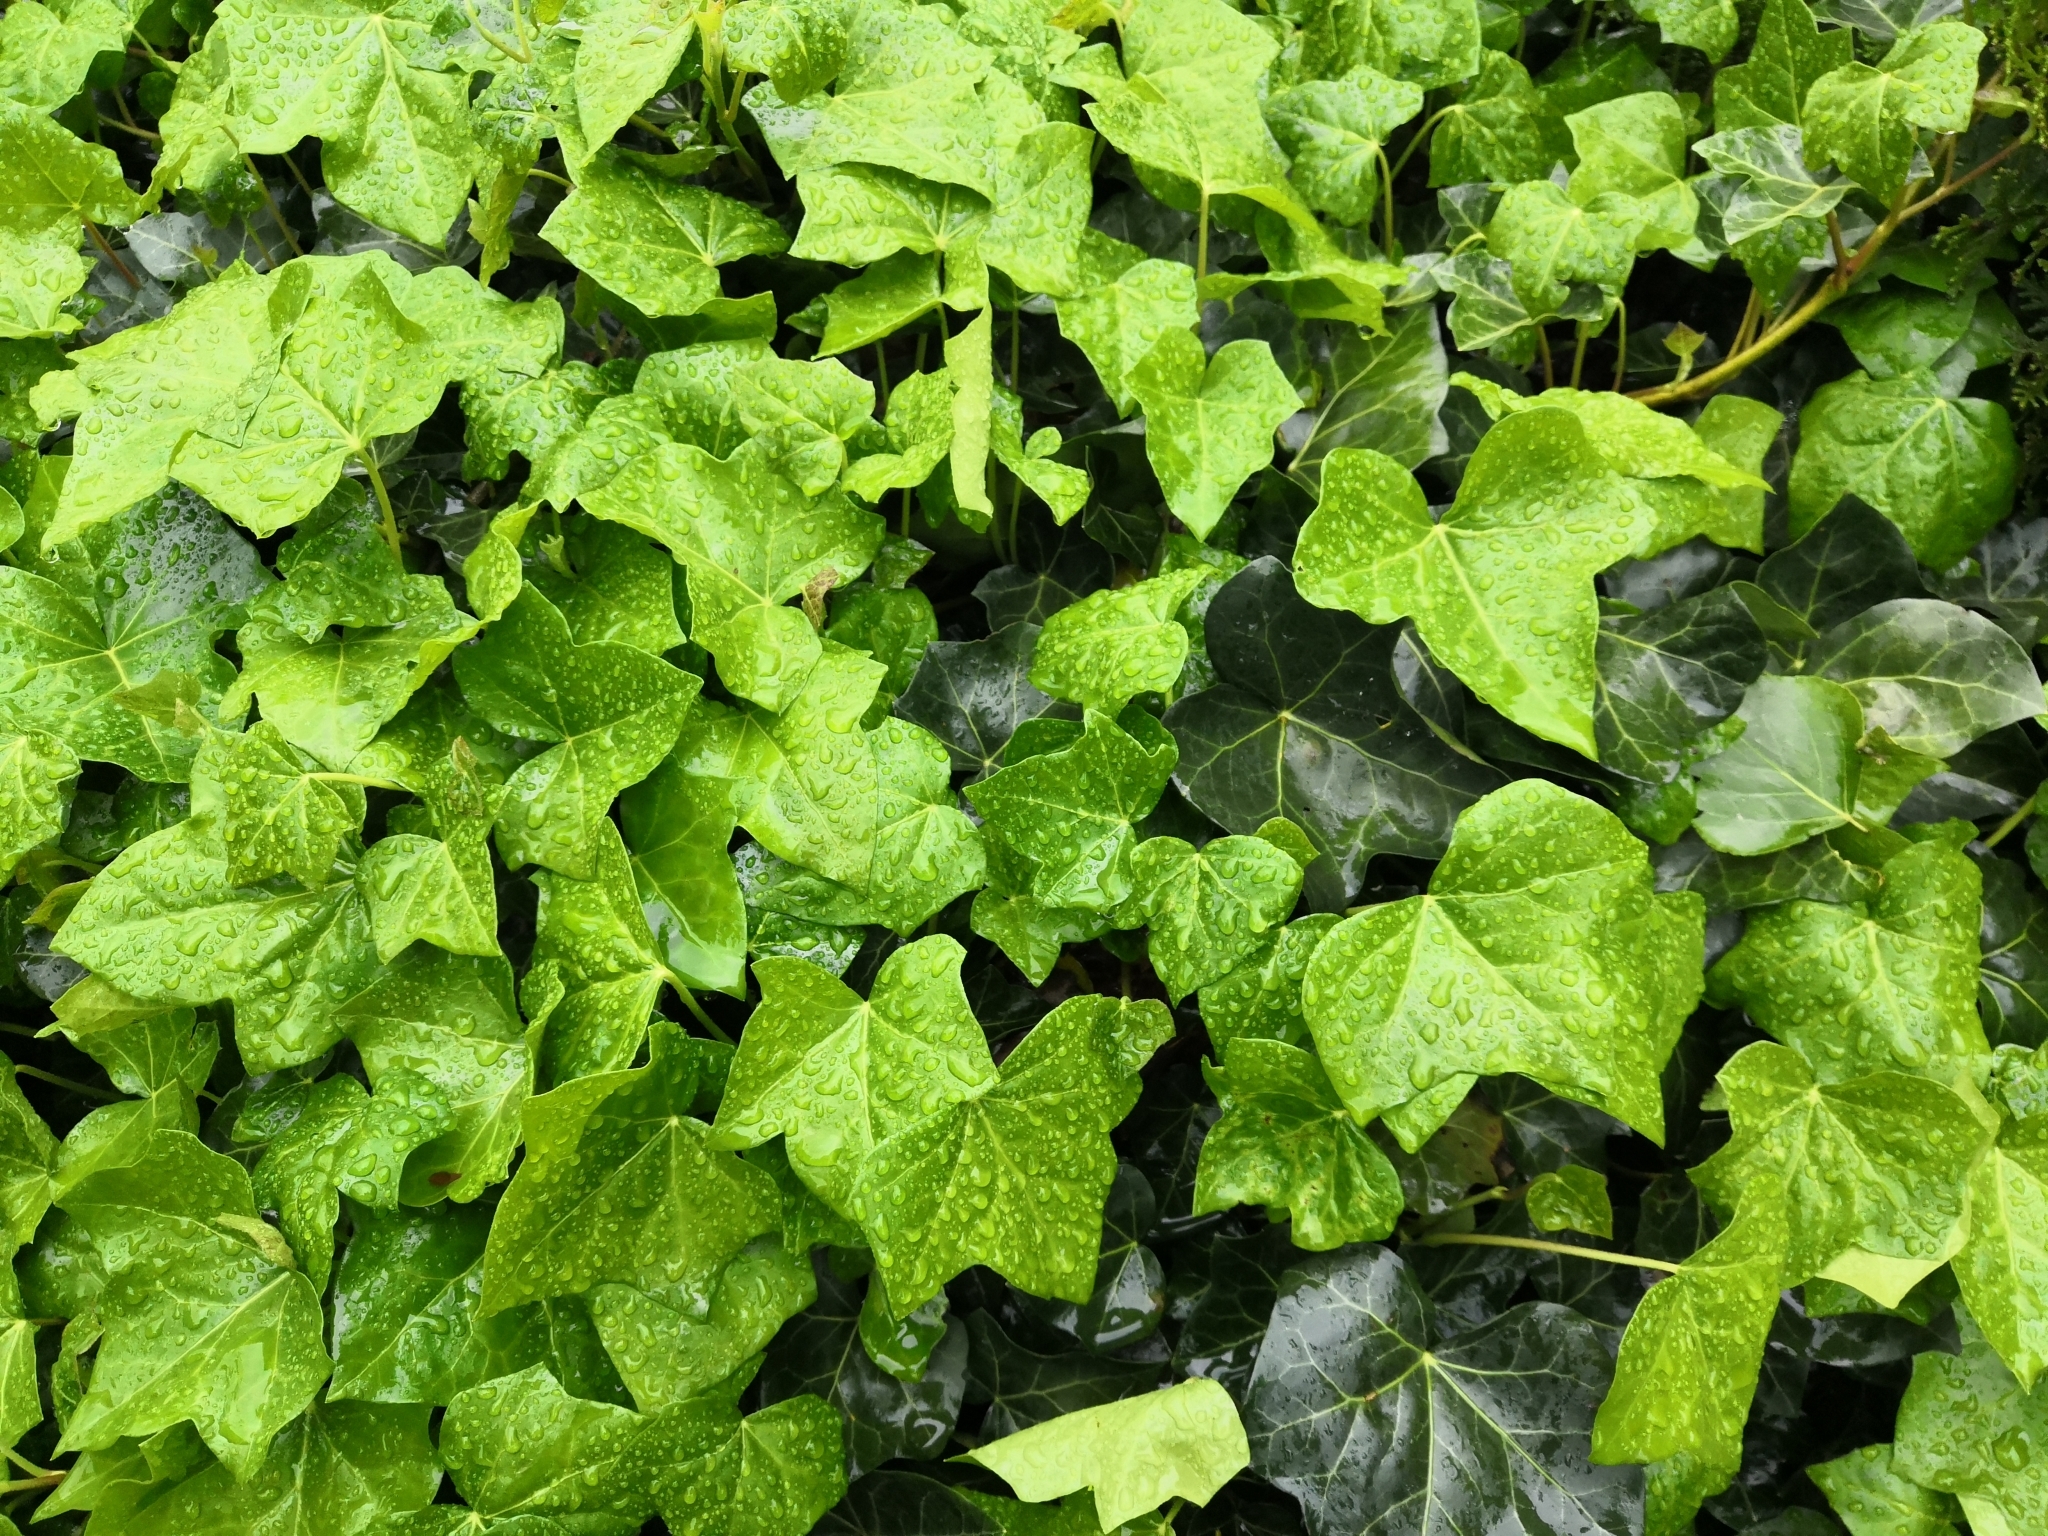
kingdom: Plantae
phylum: Tracheophyta
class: Magnoliopsida
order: Apiales
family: Araliaceae
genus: Hedera
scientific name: Hedera helix
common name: Ivy
